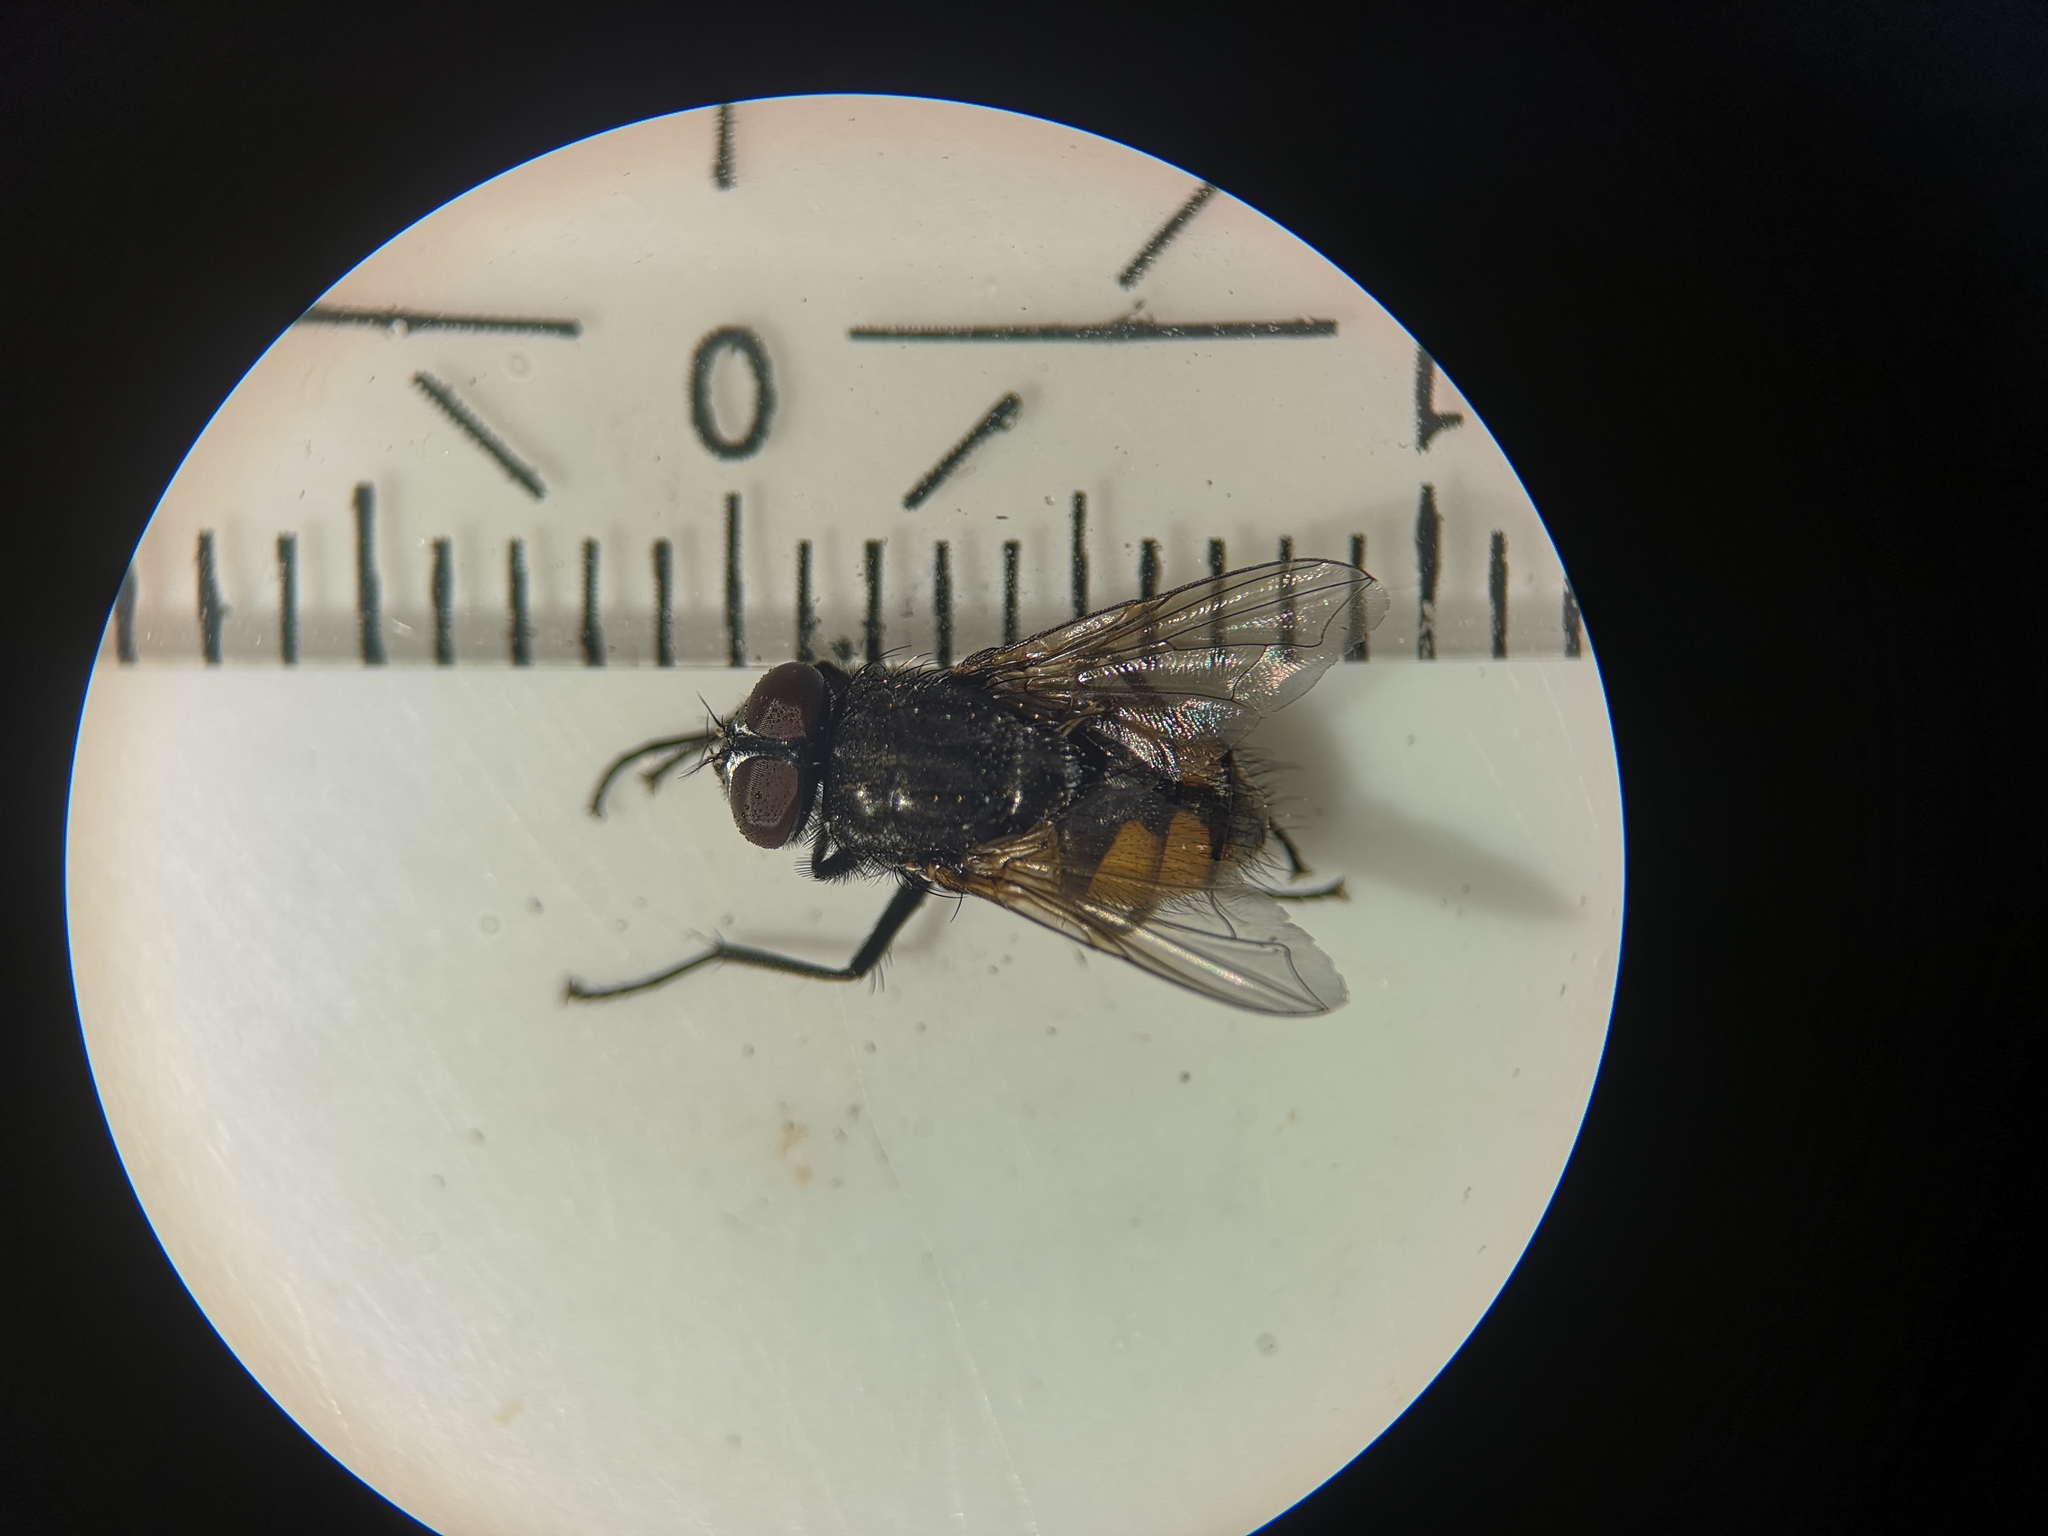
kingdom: Animalia
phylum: Arthropoda
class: Insecta
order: Diptera
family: Muscidae
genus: Musca
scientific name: Musca autumnalis
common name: Face fly
